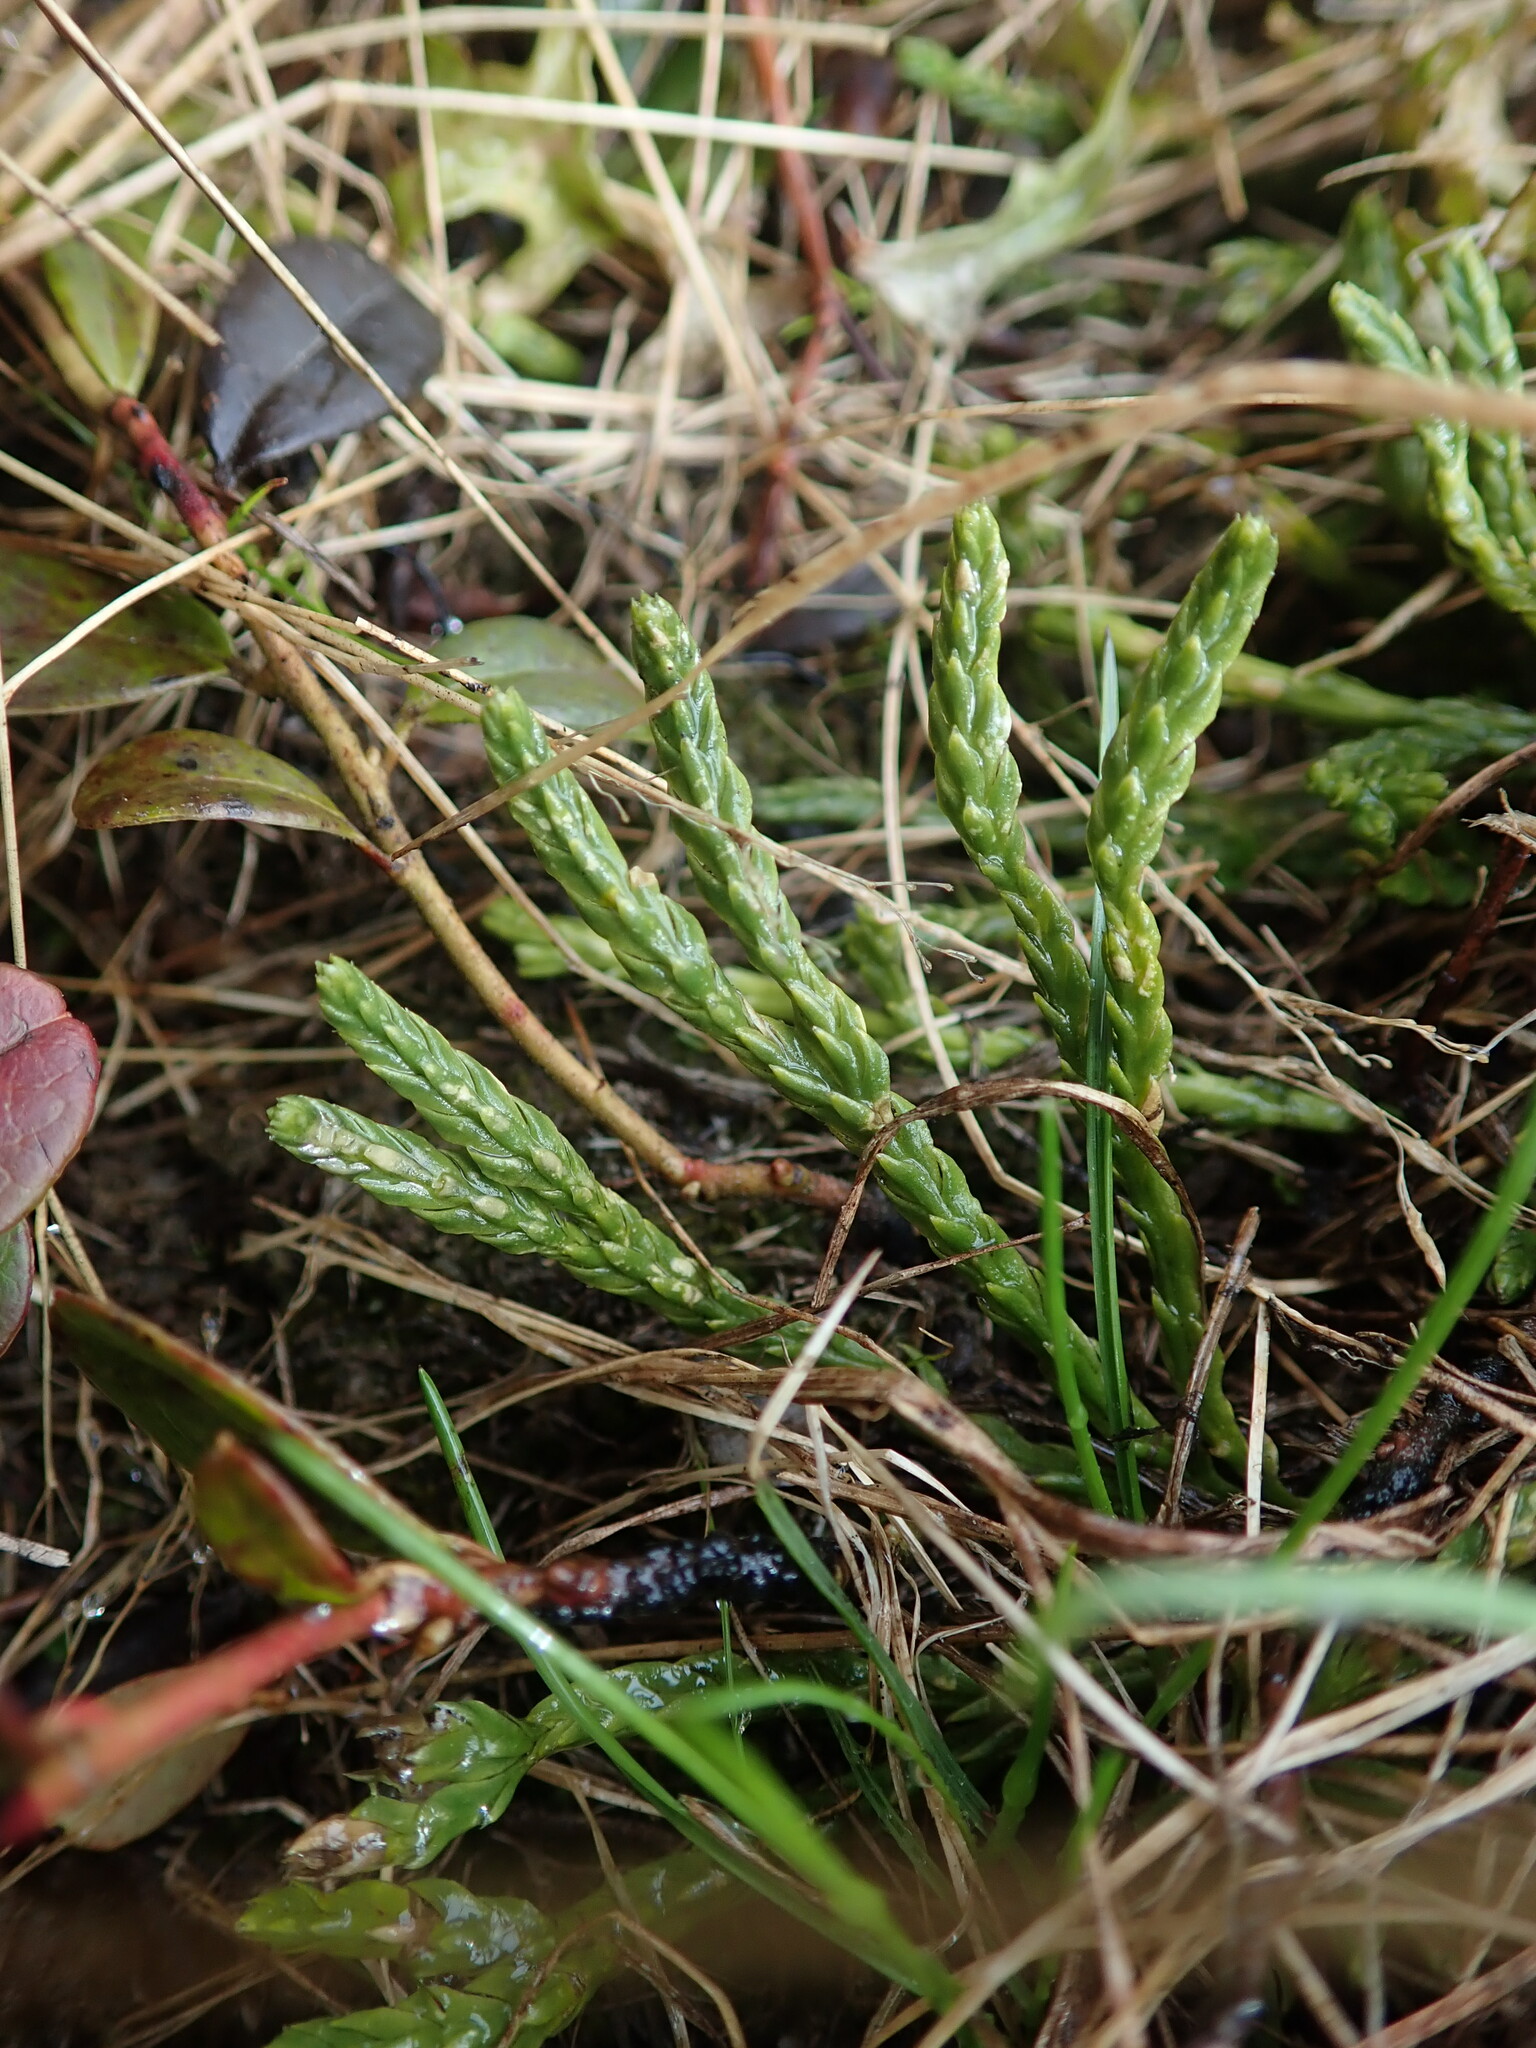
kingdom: Plantae
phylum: Tracheophyta
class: Lycopodiopsida
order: Lycopodiales
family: Lycopodiaceae
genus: Diphasiastrum
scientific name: Diphasiastrum alpinum
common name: Alpine clubmoss
